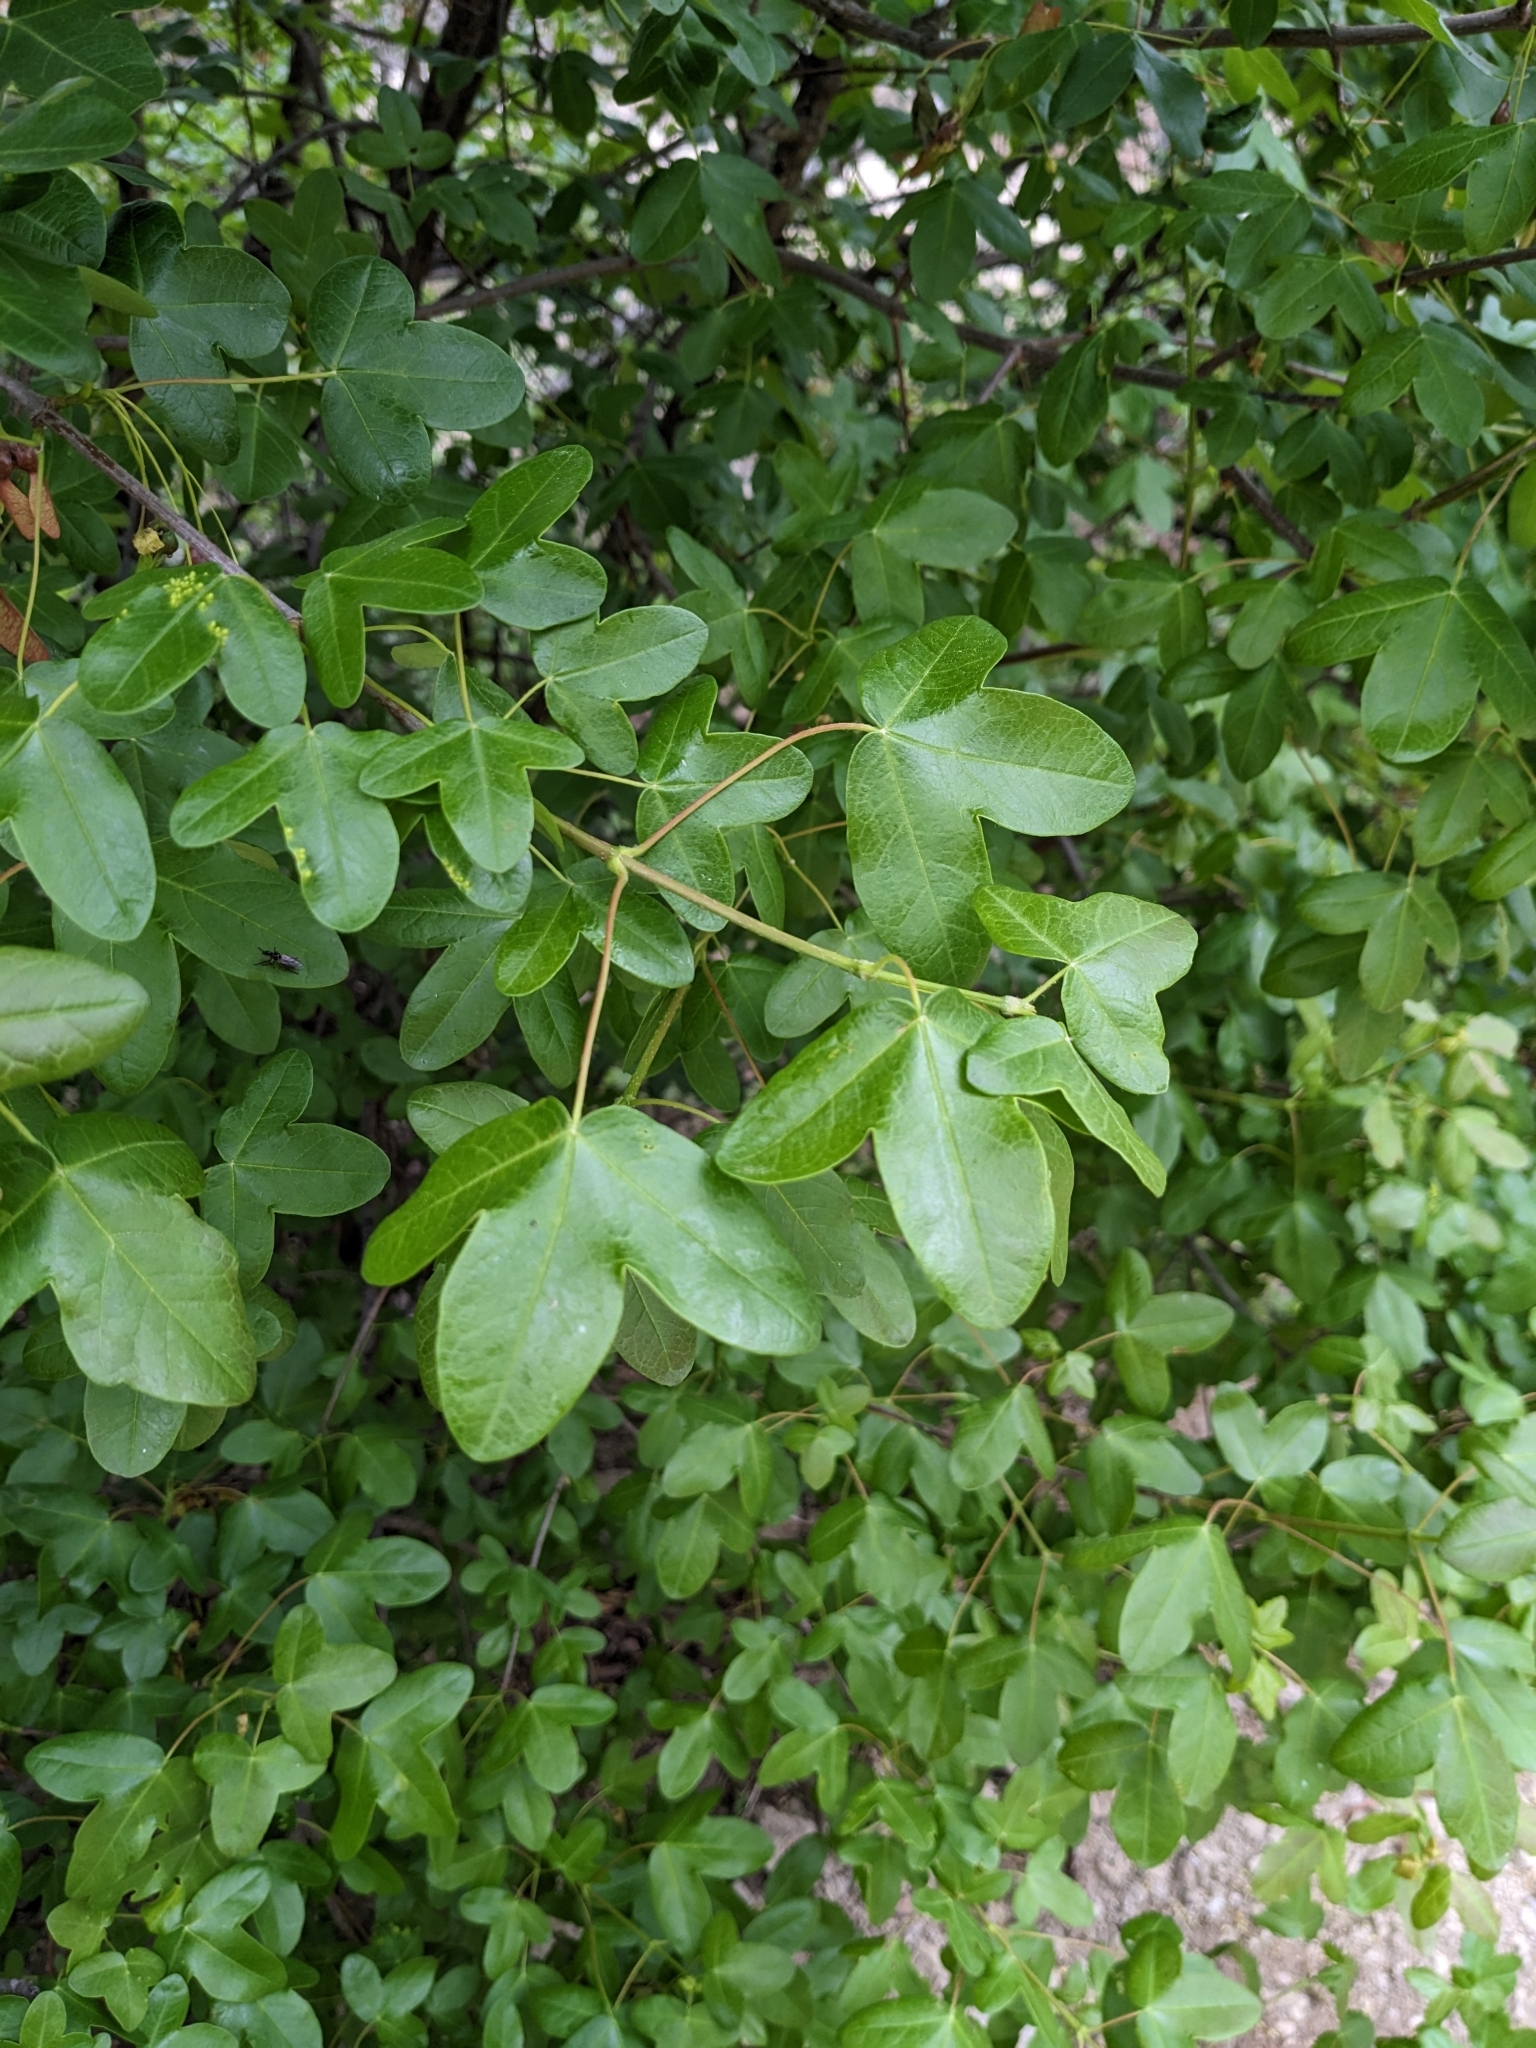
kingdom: Plantae
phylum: Tracheophyta
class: Magnoliopsida
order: Sapindales
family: Sapindaceae
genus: Acer
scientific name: Acer monspessulanum
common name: Montpellier maple
